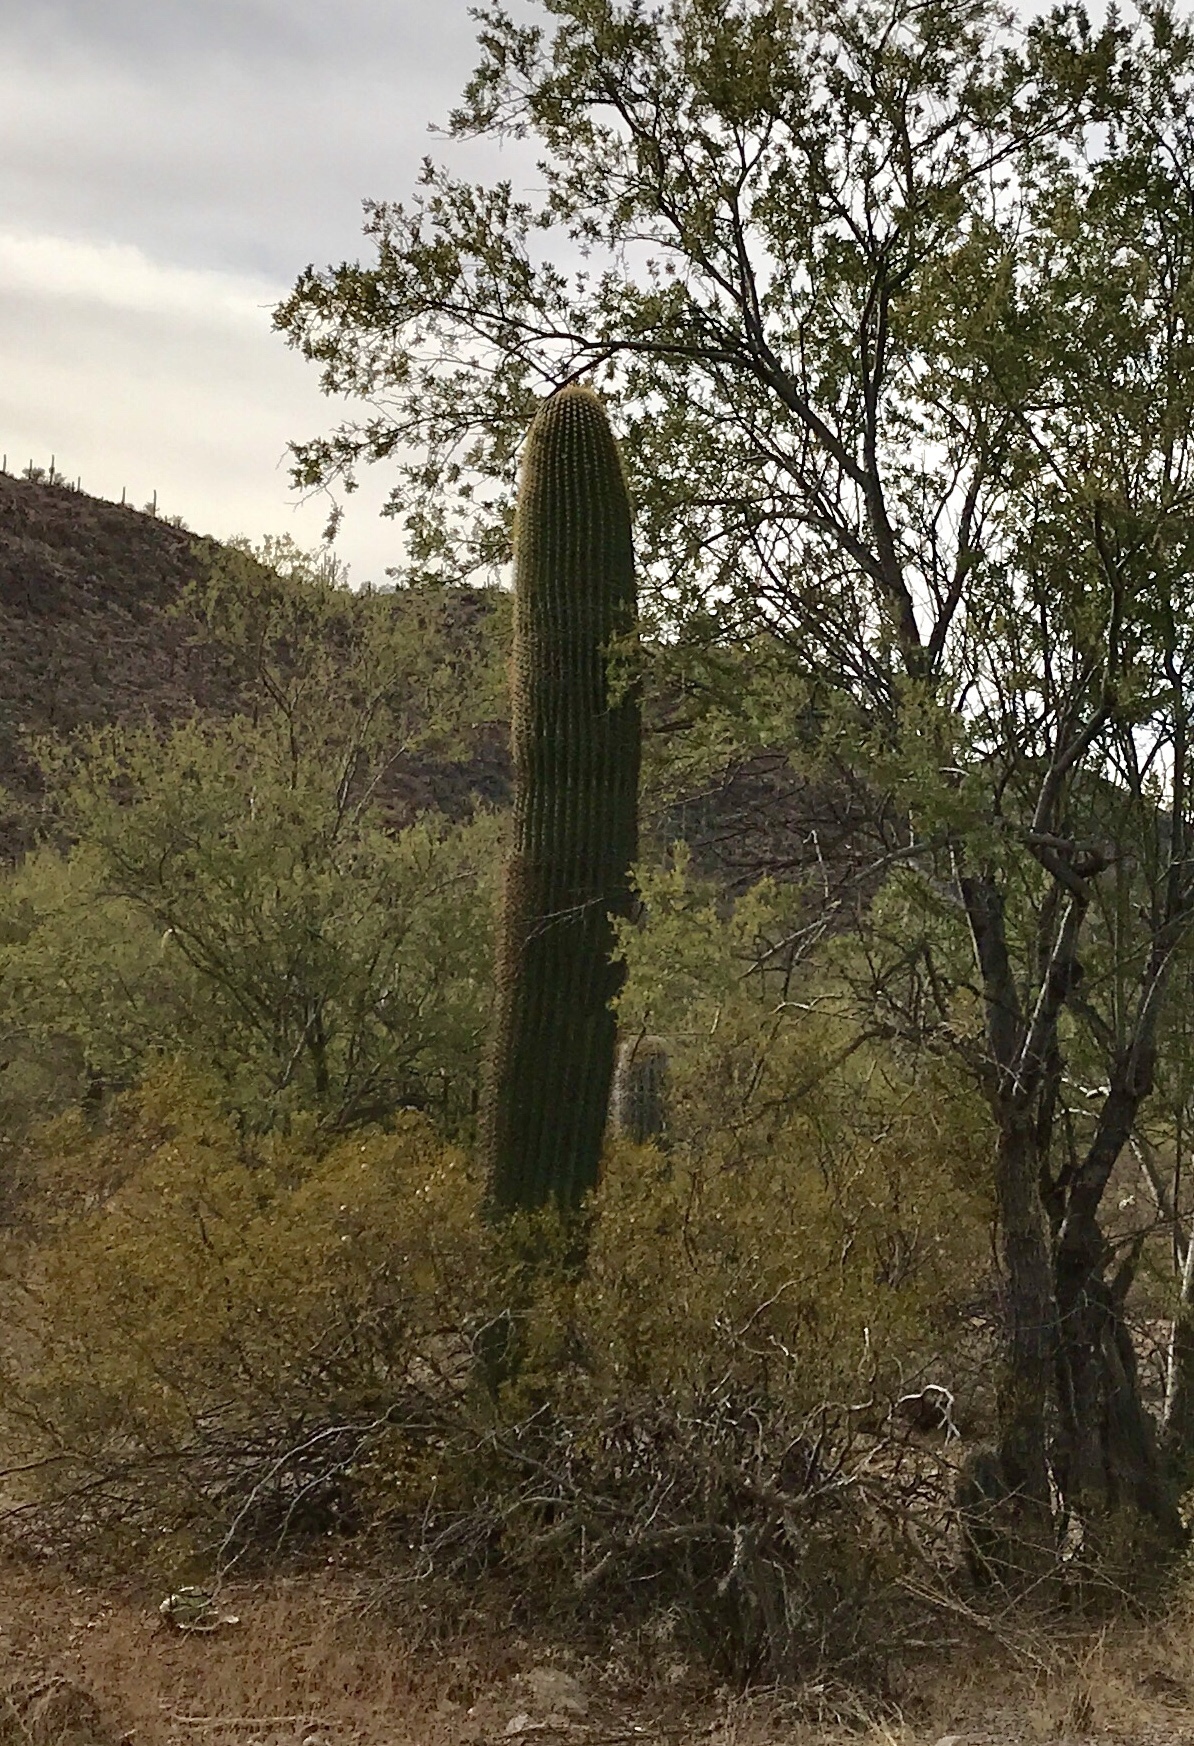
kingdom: Plantae
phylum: Tracheophyta
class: Magnoliopsida
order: Caryophyllales
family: Cactaceae
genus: Carnegiea
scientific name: Carnegiea gigantea
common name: Saguaro
